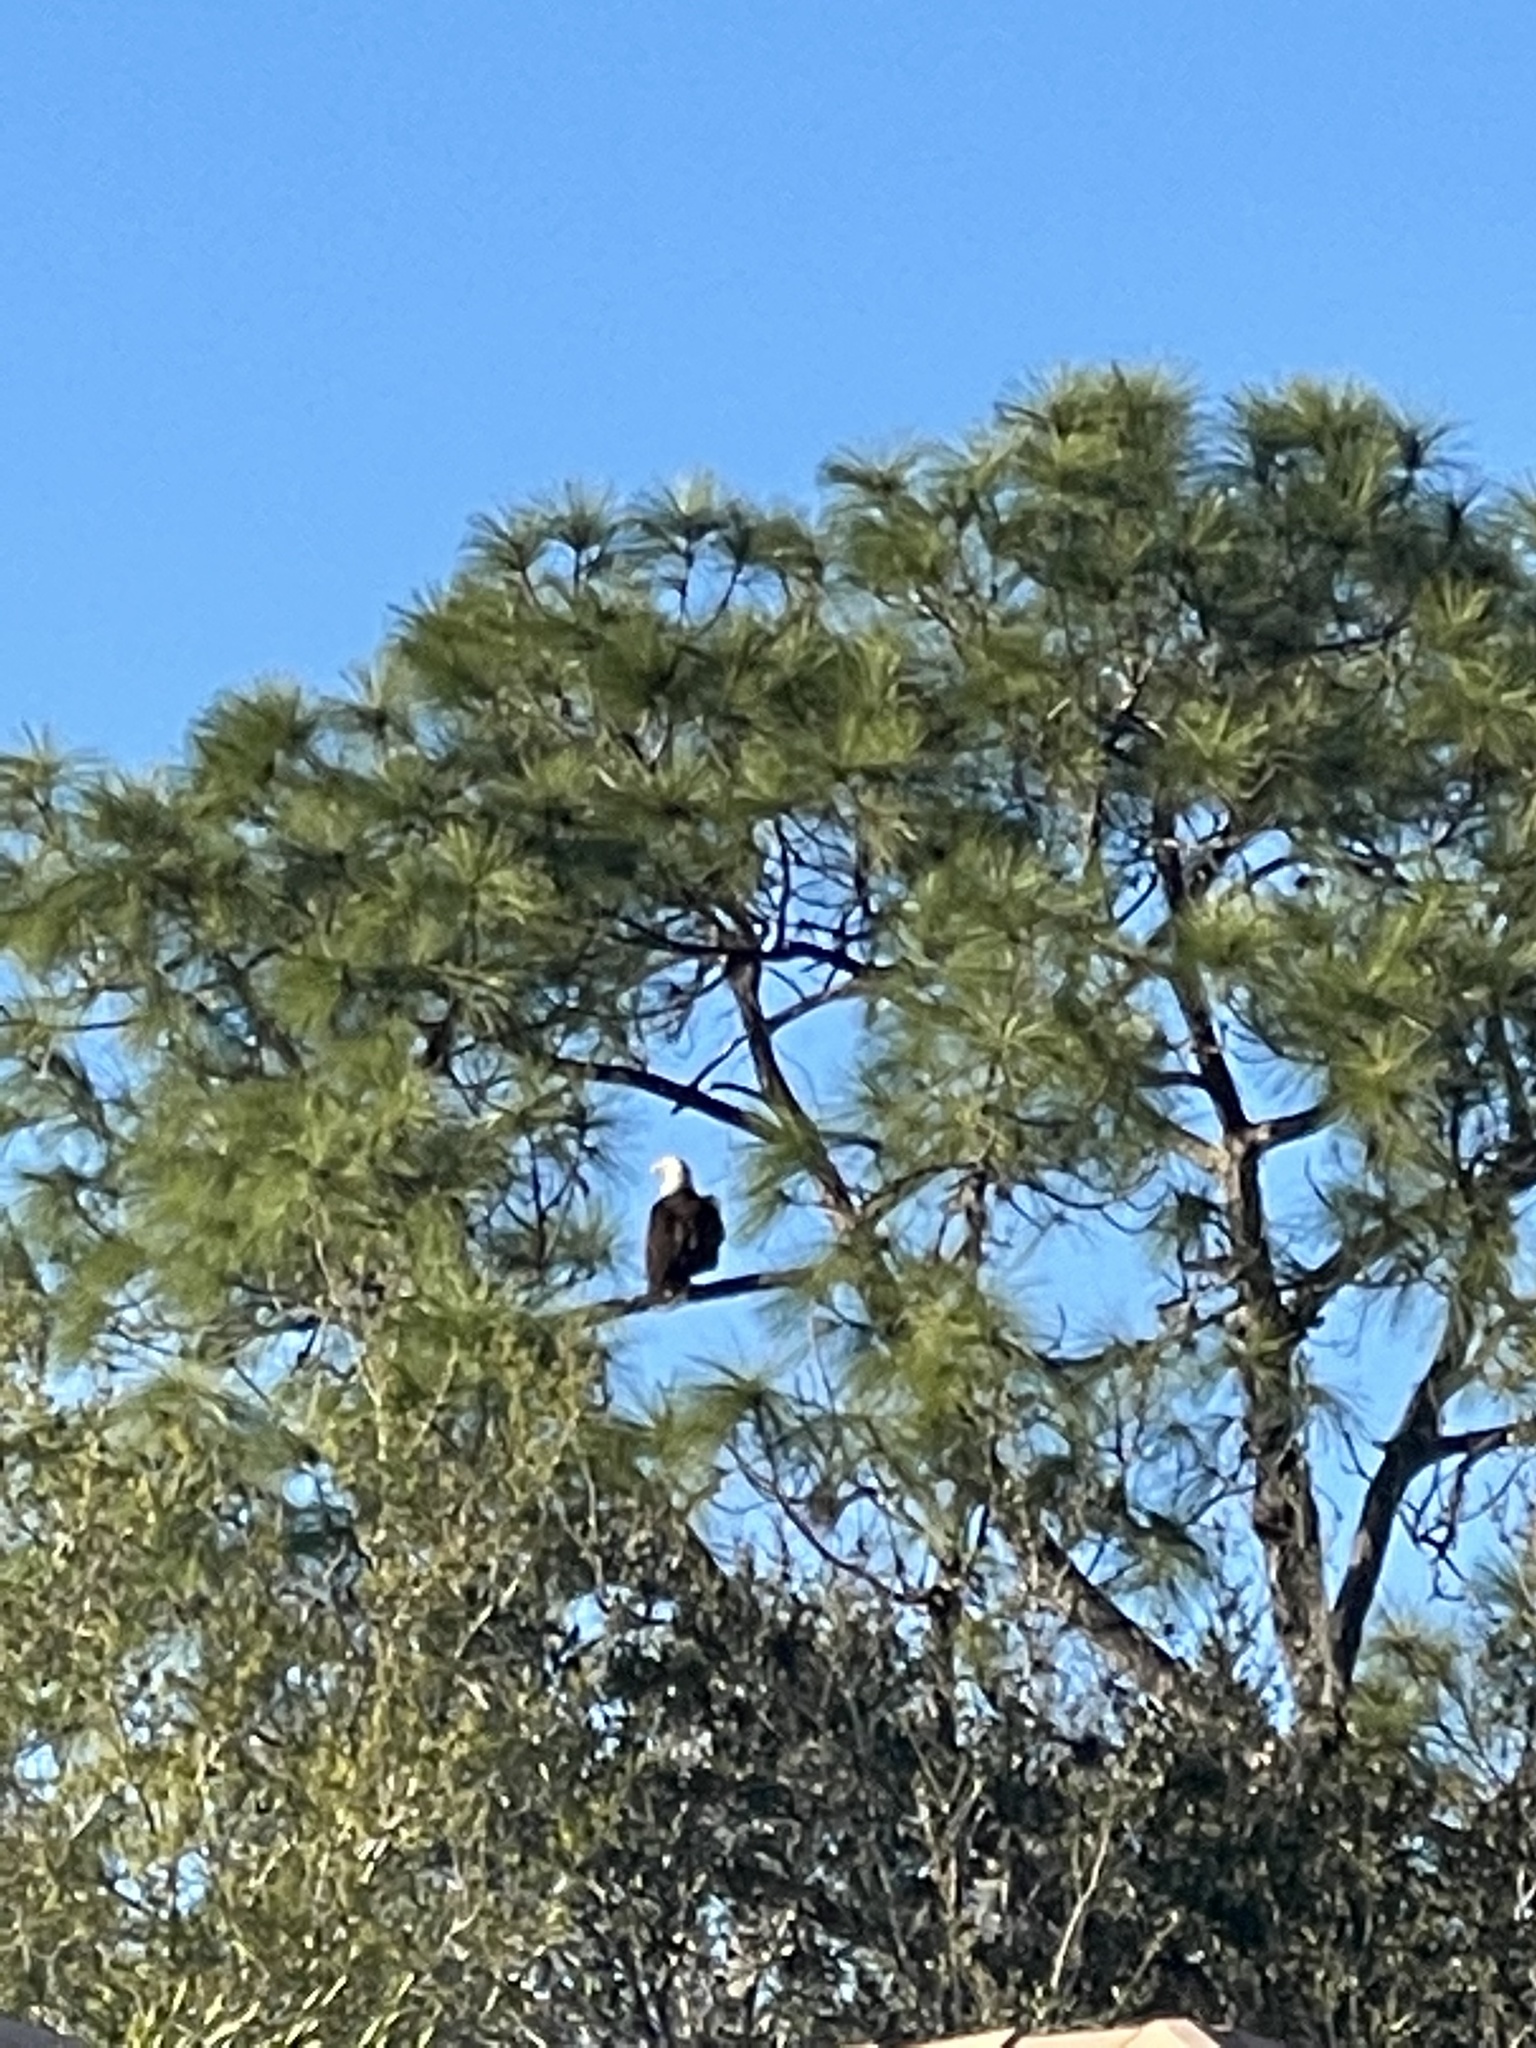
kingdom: Animalia
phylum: Chordata
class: Aves
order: Accipitriformes
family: Accipitridae
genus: Haliaeetus
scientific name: Haliaeetus leucocephalus
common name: Bald eagle
